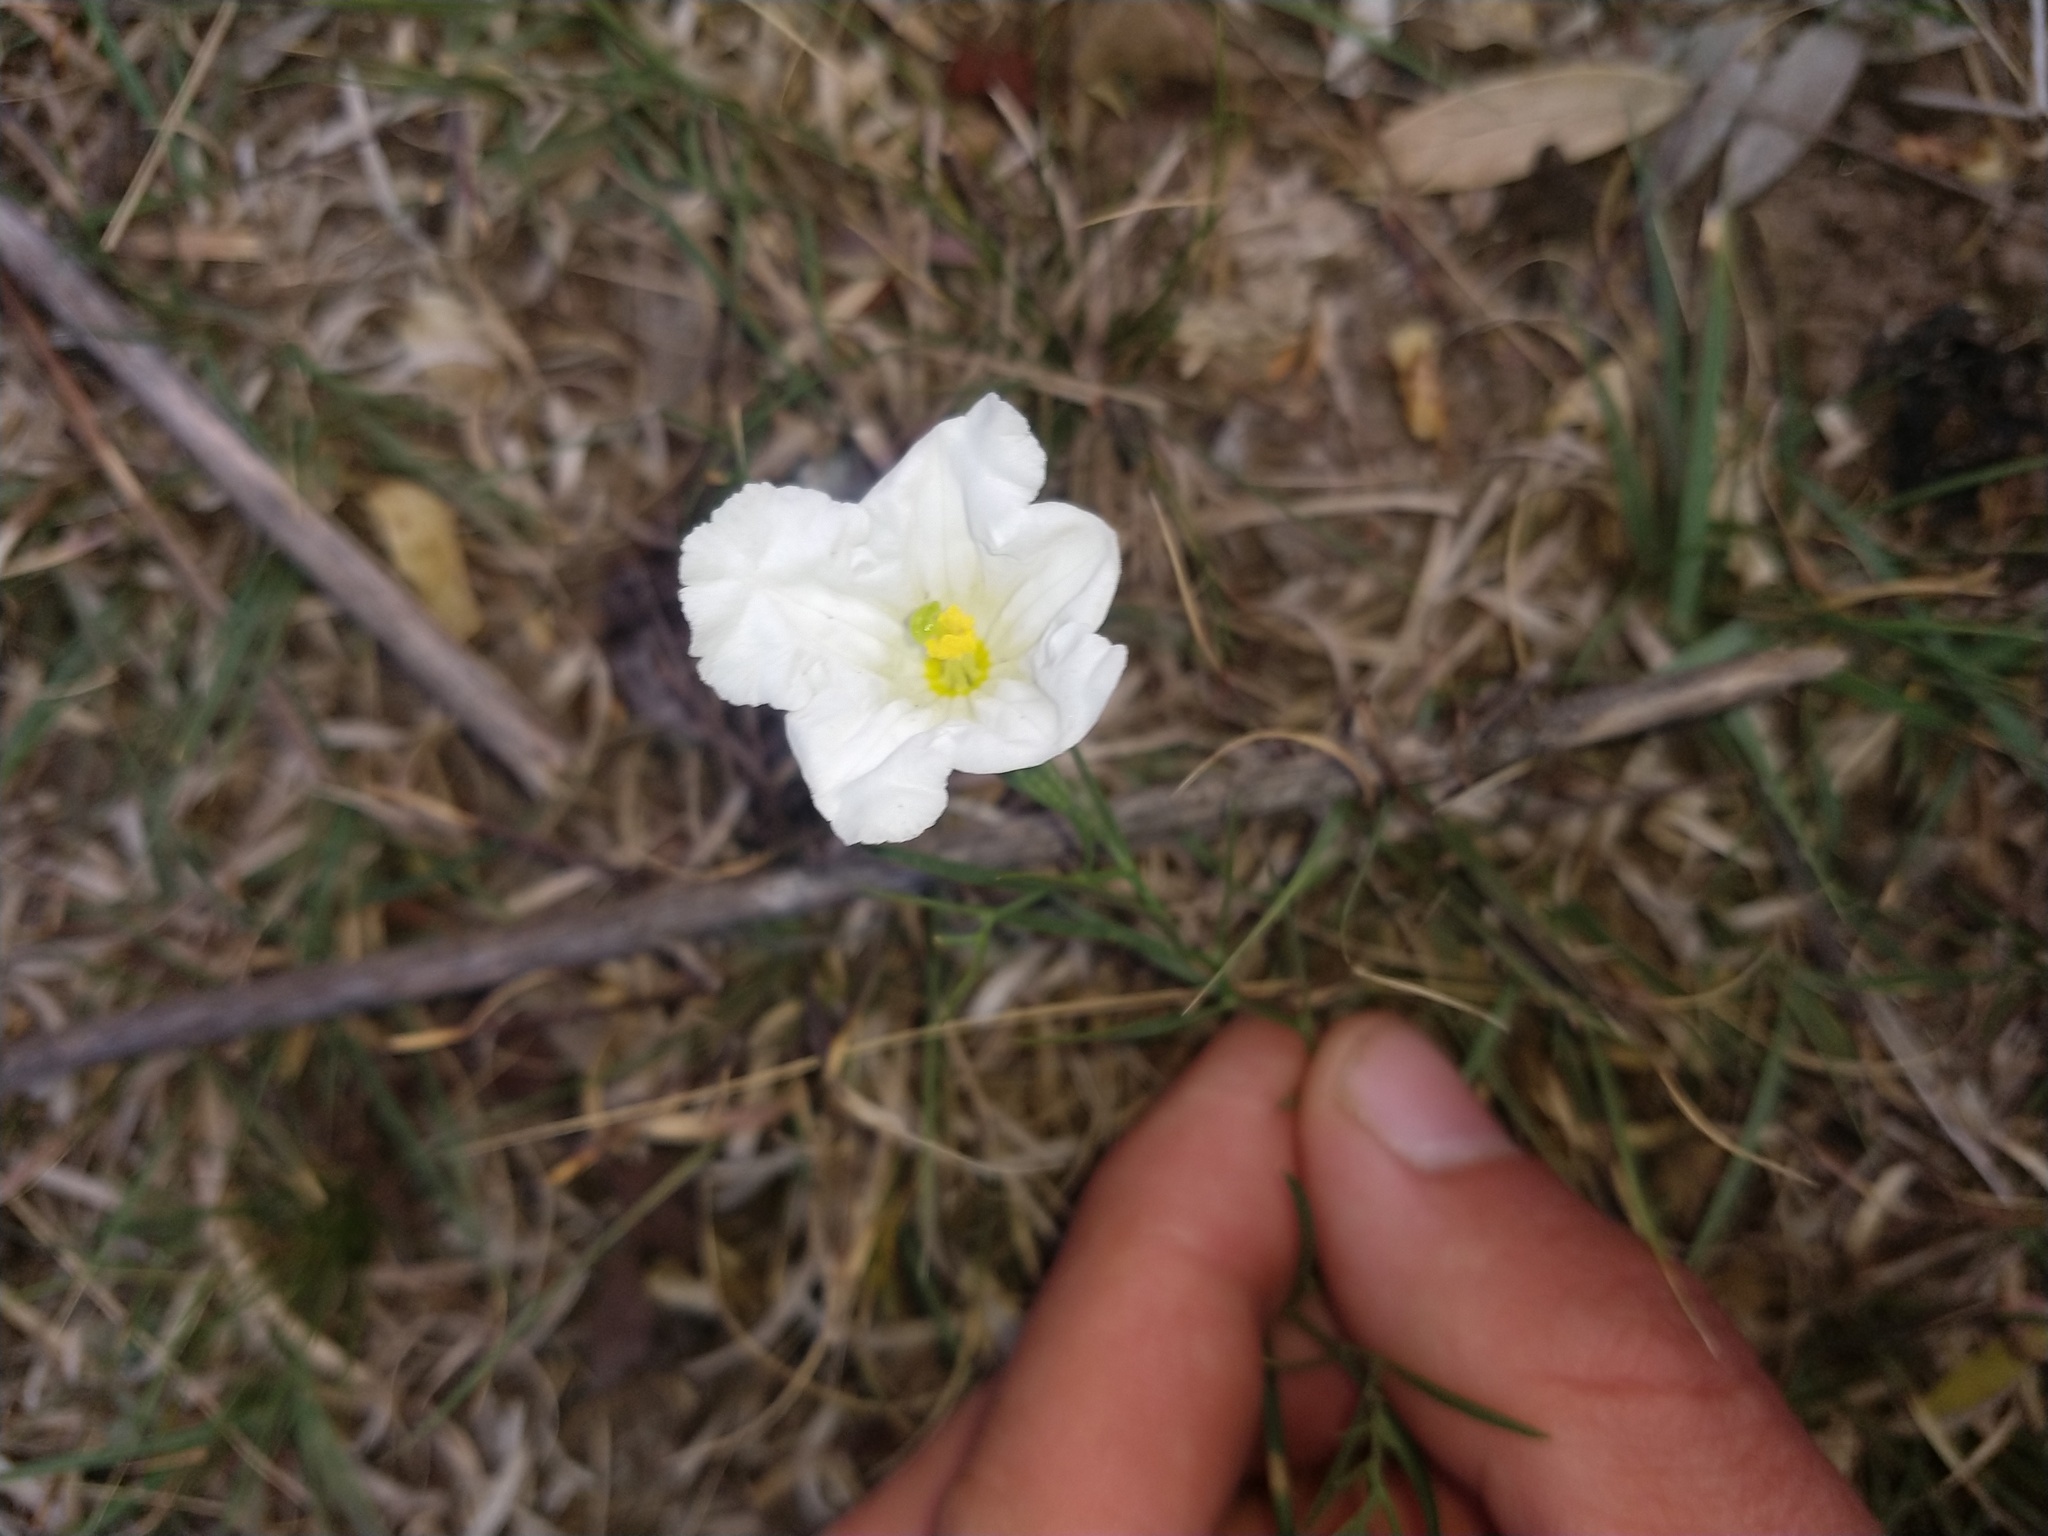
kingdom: Plantae
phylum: Tracheophyta
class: Magnoliopsida
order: Solanales
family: Solanaceae
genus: Nierembergia
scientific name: Nierembergia rigida
